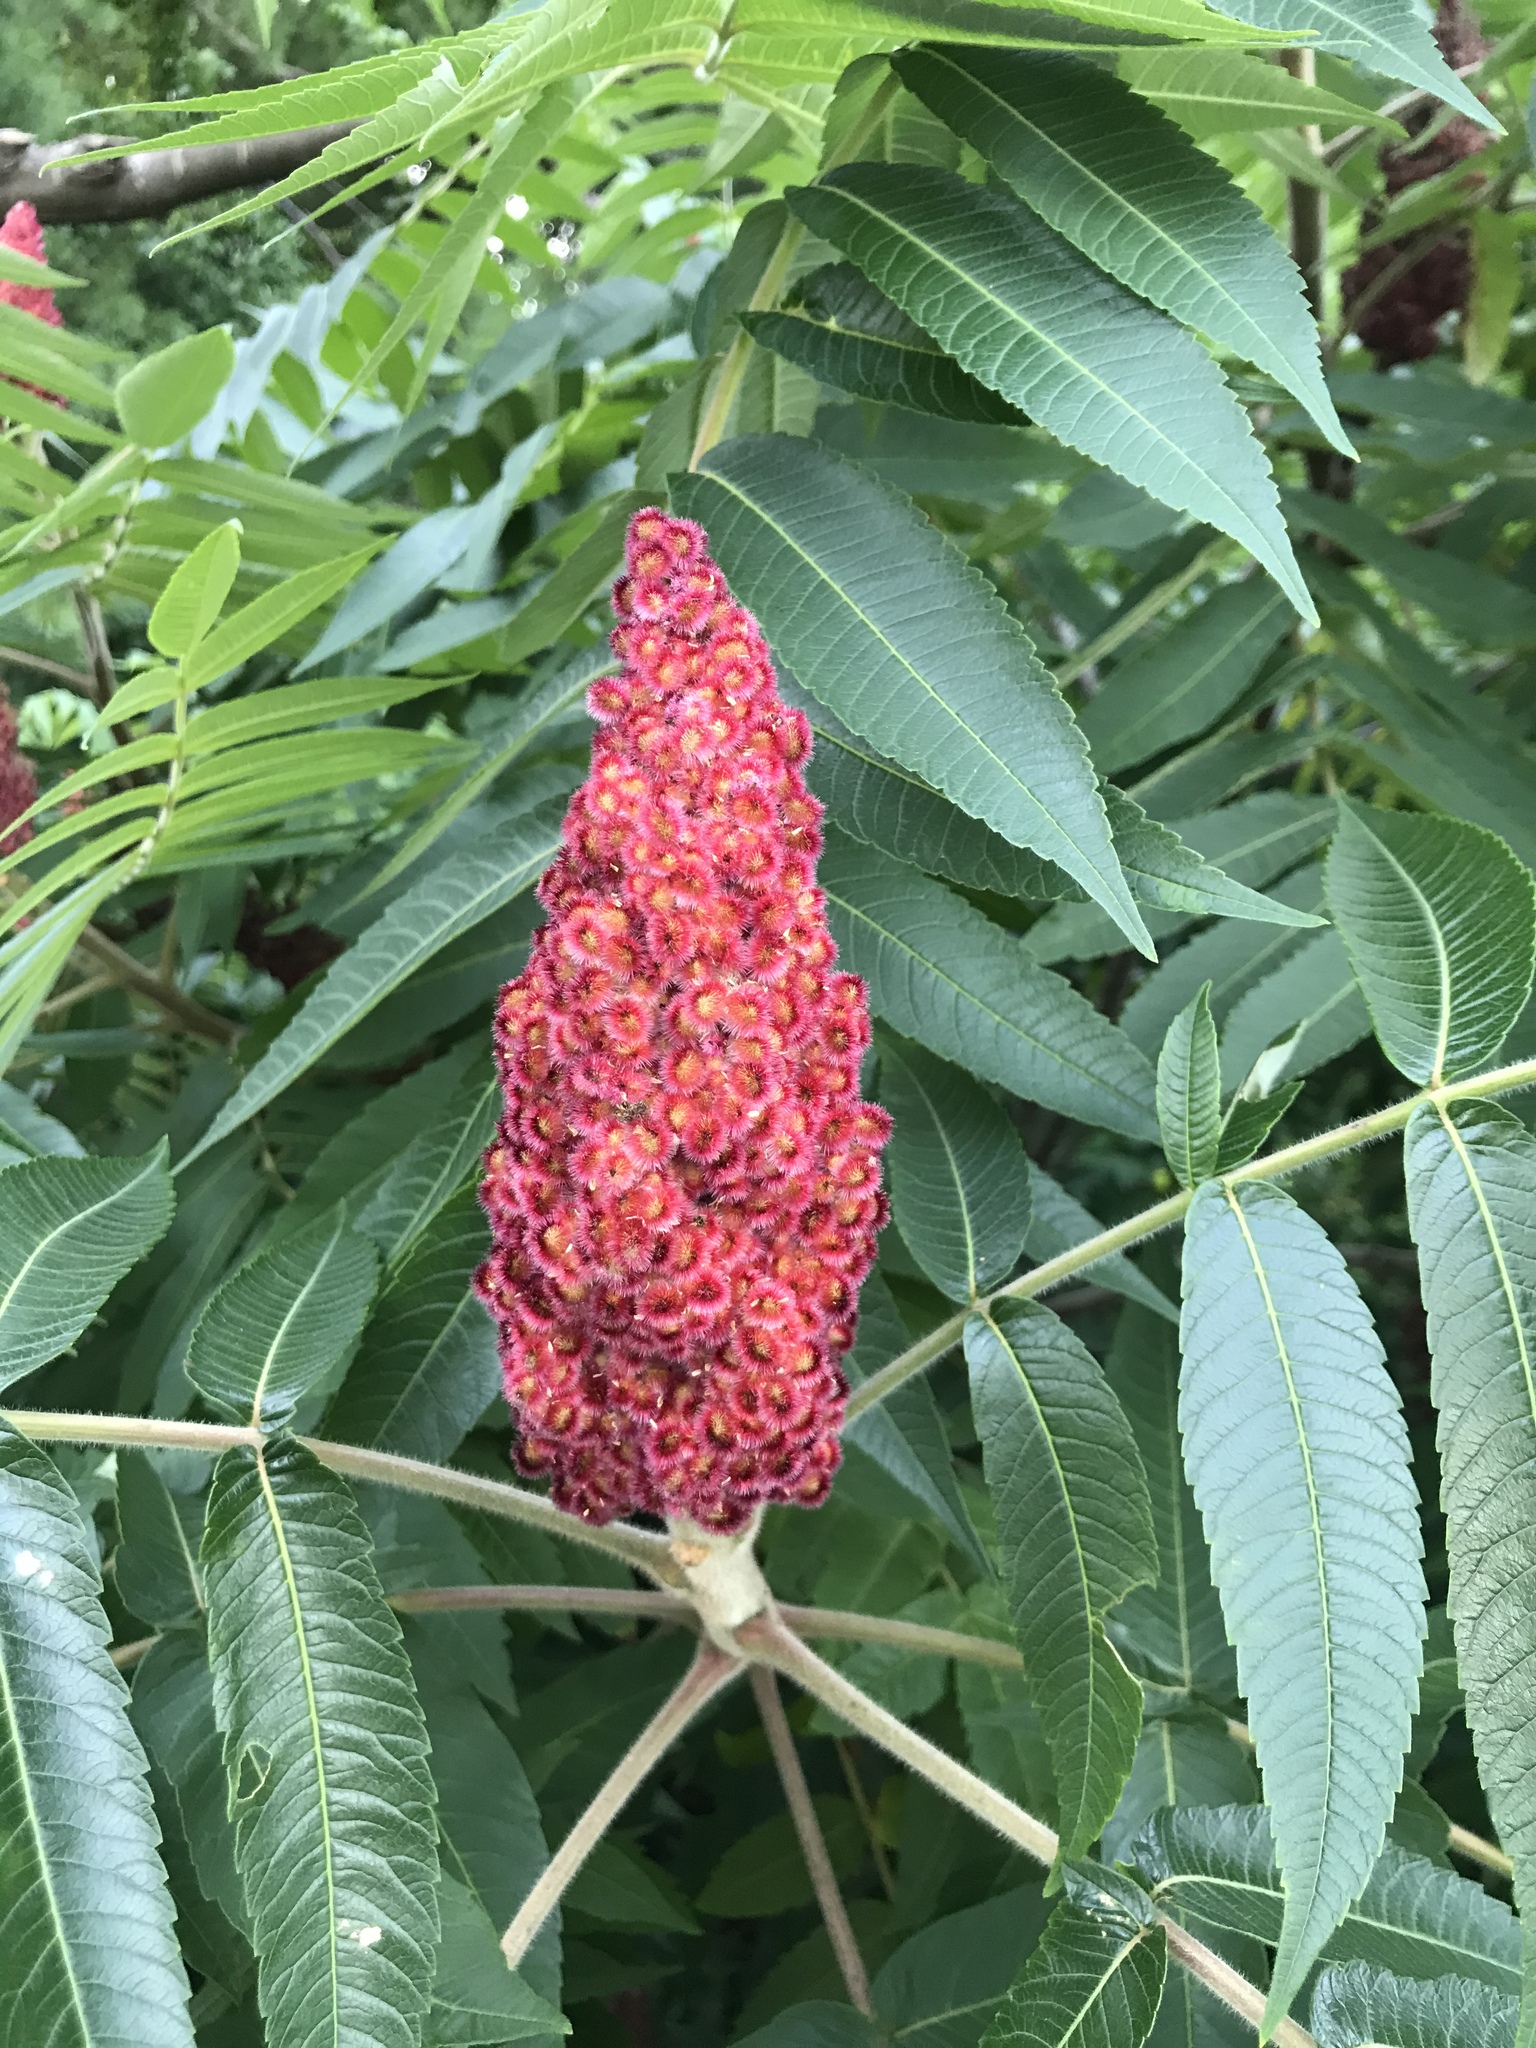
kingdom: Plantae
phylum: Tracheophyta
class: Magnoliopsida
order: Sapindales
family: Anacardiaceae
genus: Rhus
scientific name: Rhus typhina
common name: Staghorn sumac
